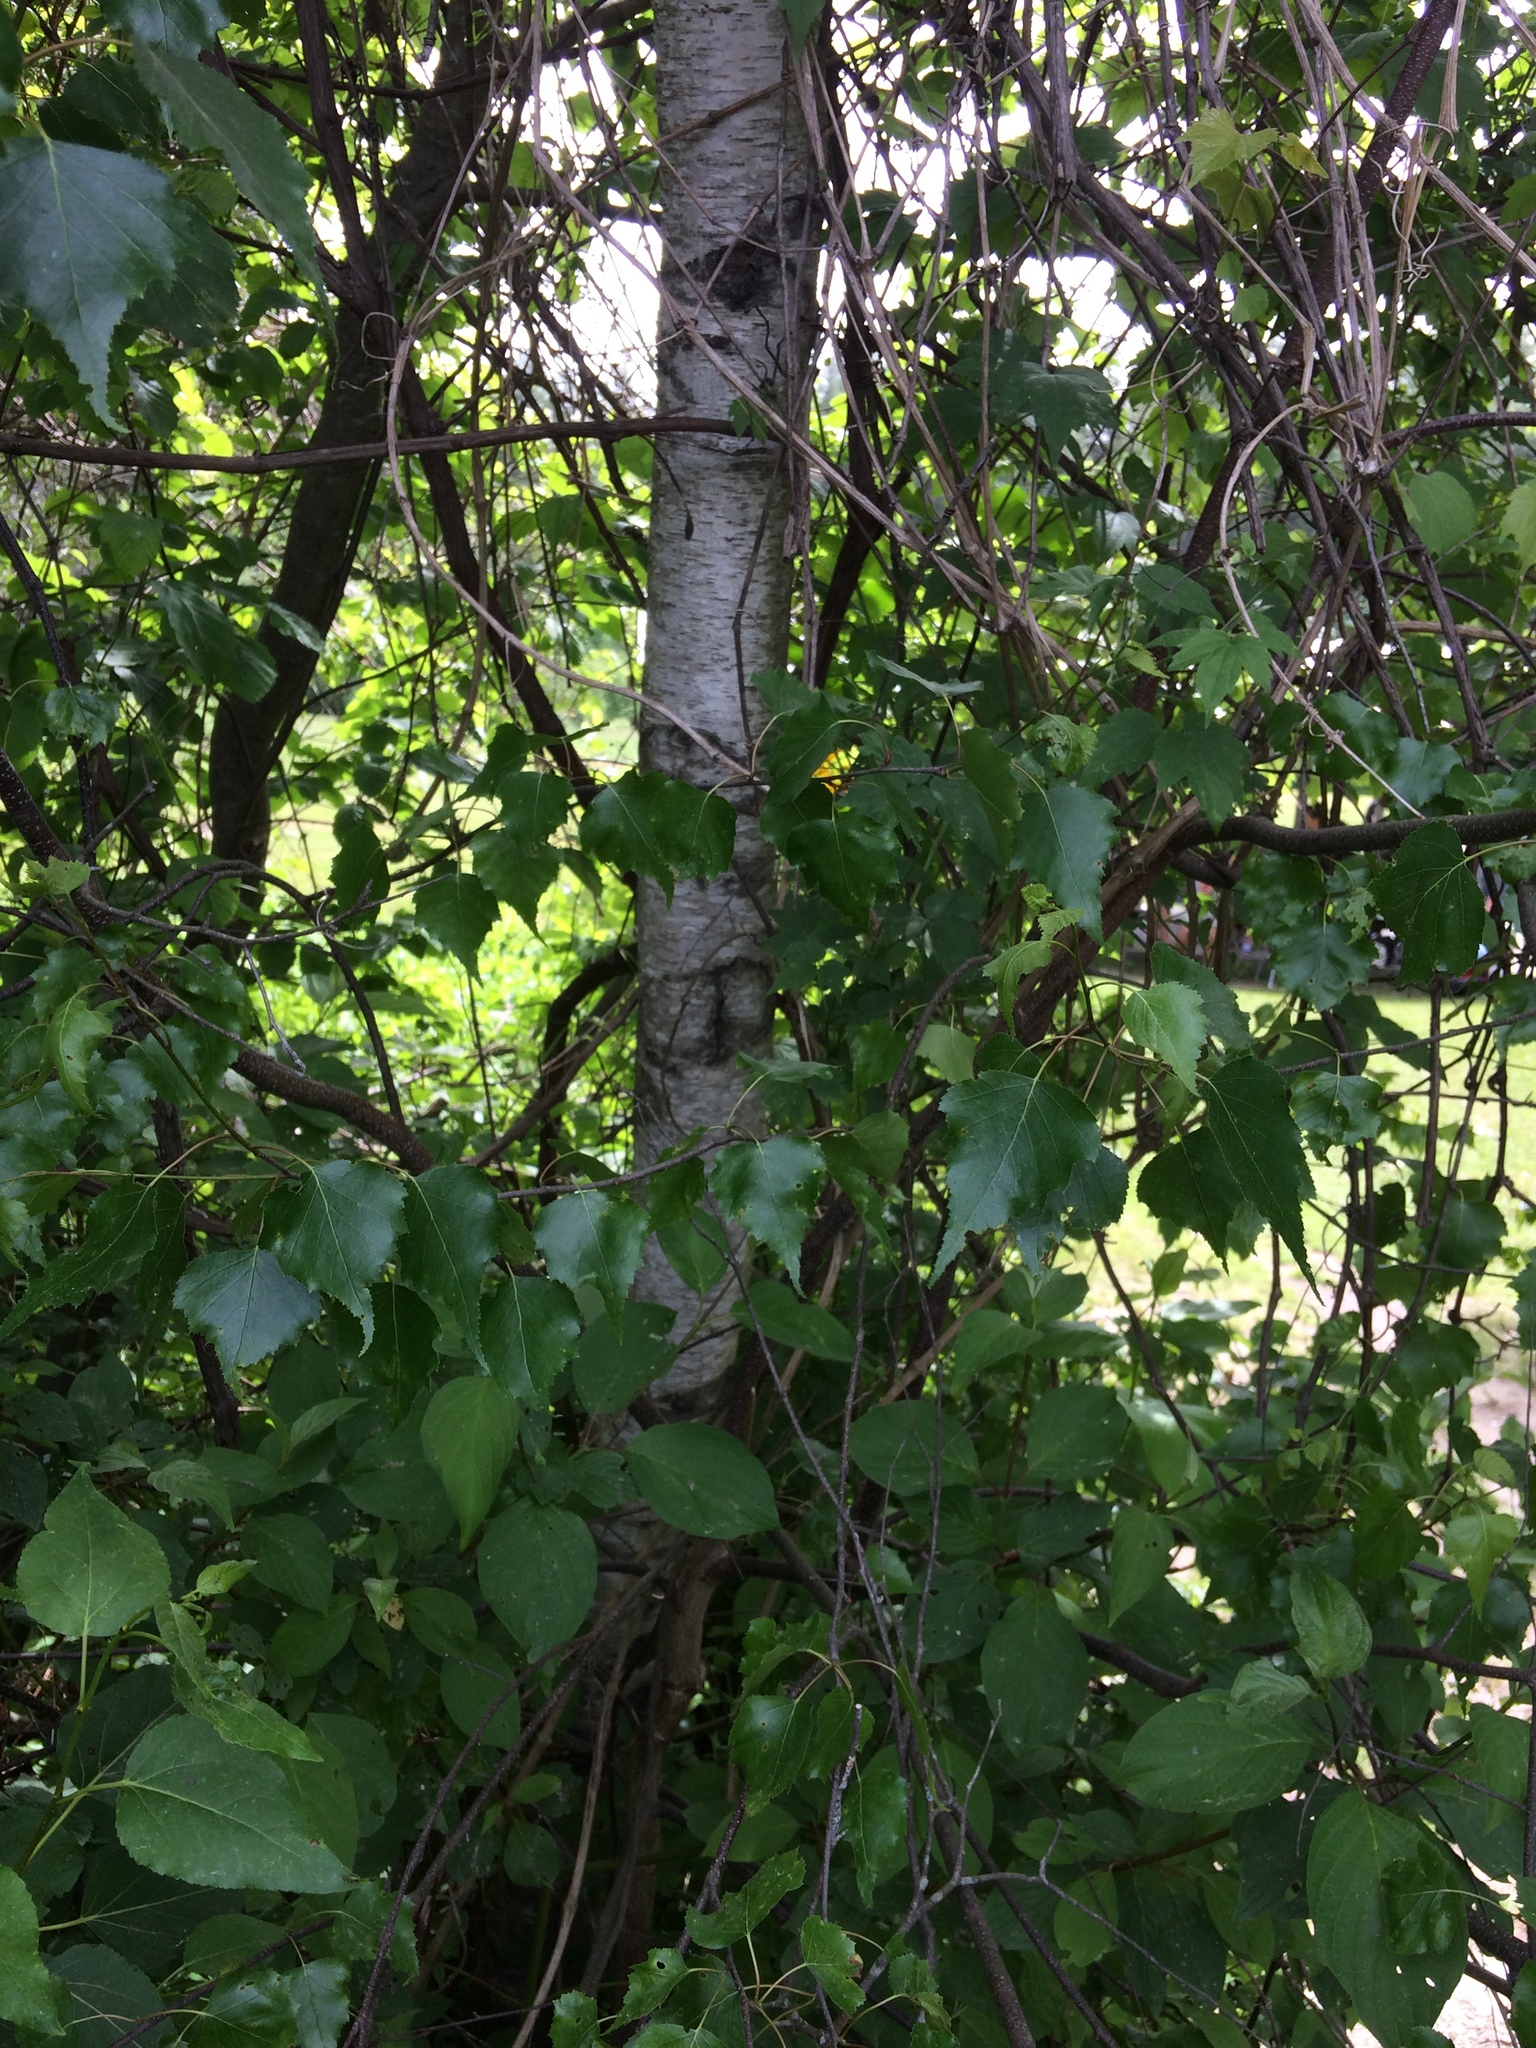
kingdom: Plantae
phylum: Tracheophyta
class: Magnoliopsida
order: Fagales
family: Betulaceae
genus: Betula
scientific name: Betula populifolia
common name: Fire birch
